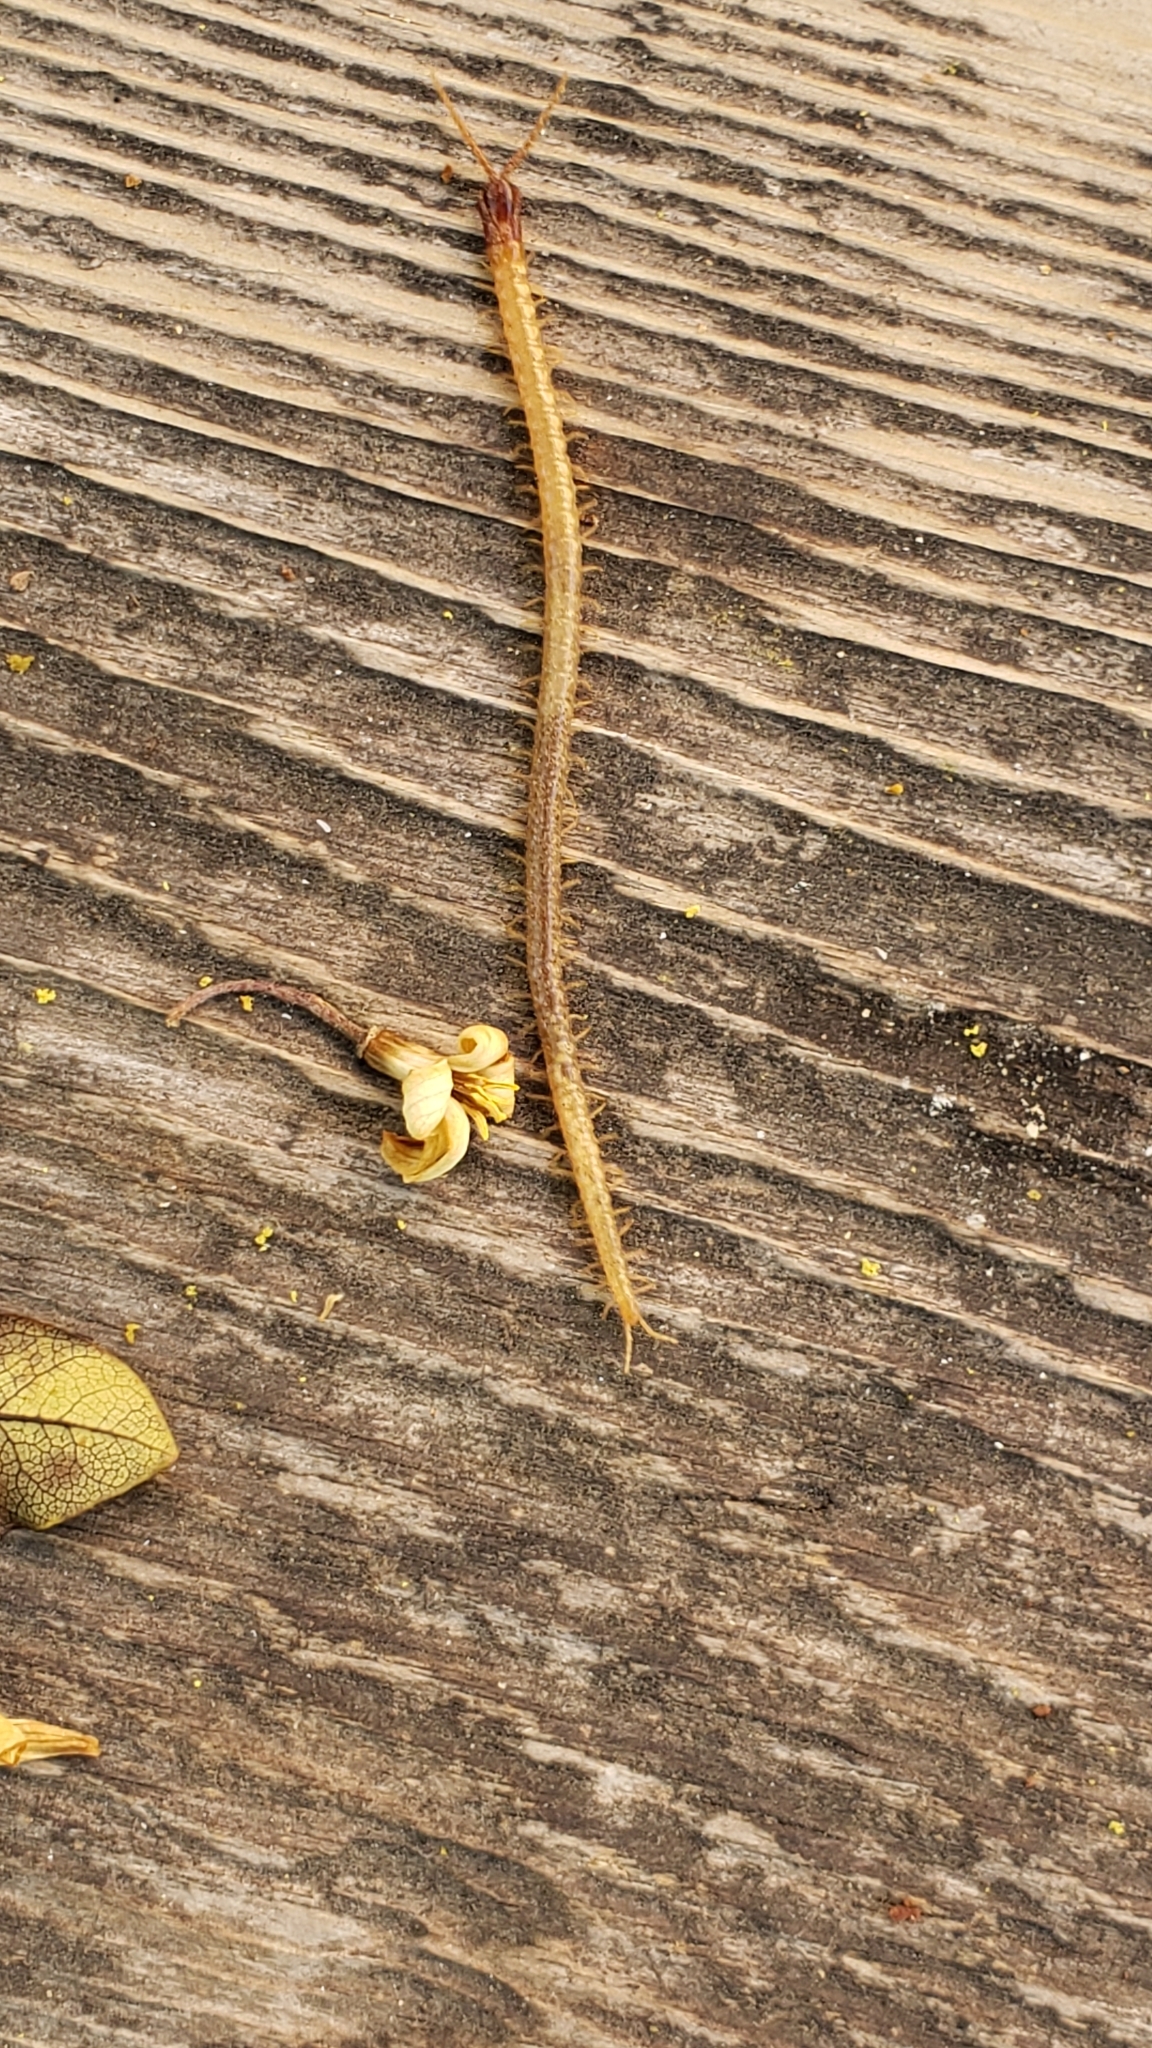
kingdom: Animalia
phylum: Arthropoda
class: Chilopoda
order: Geophilomorpha
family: Mecistocephalidae
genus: Dicellophilus
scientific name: Dicellophilus limatus
